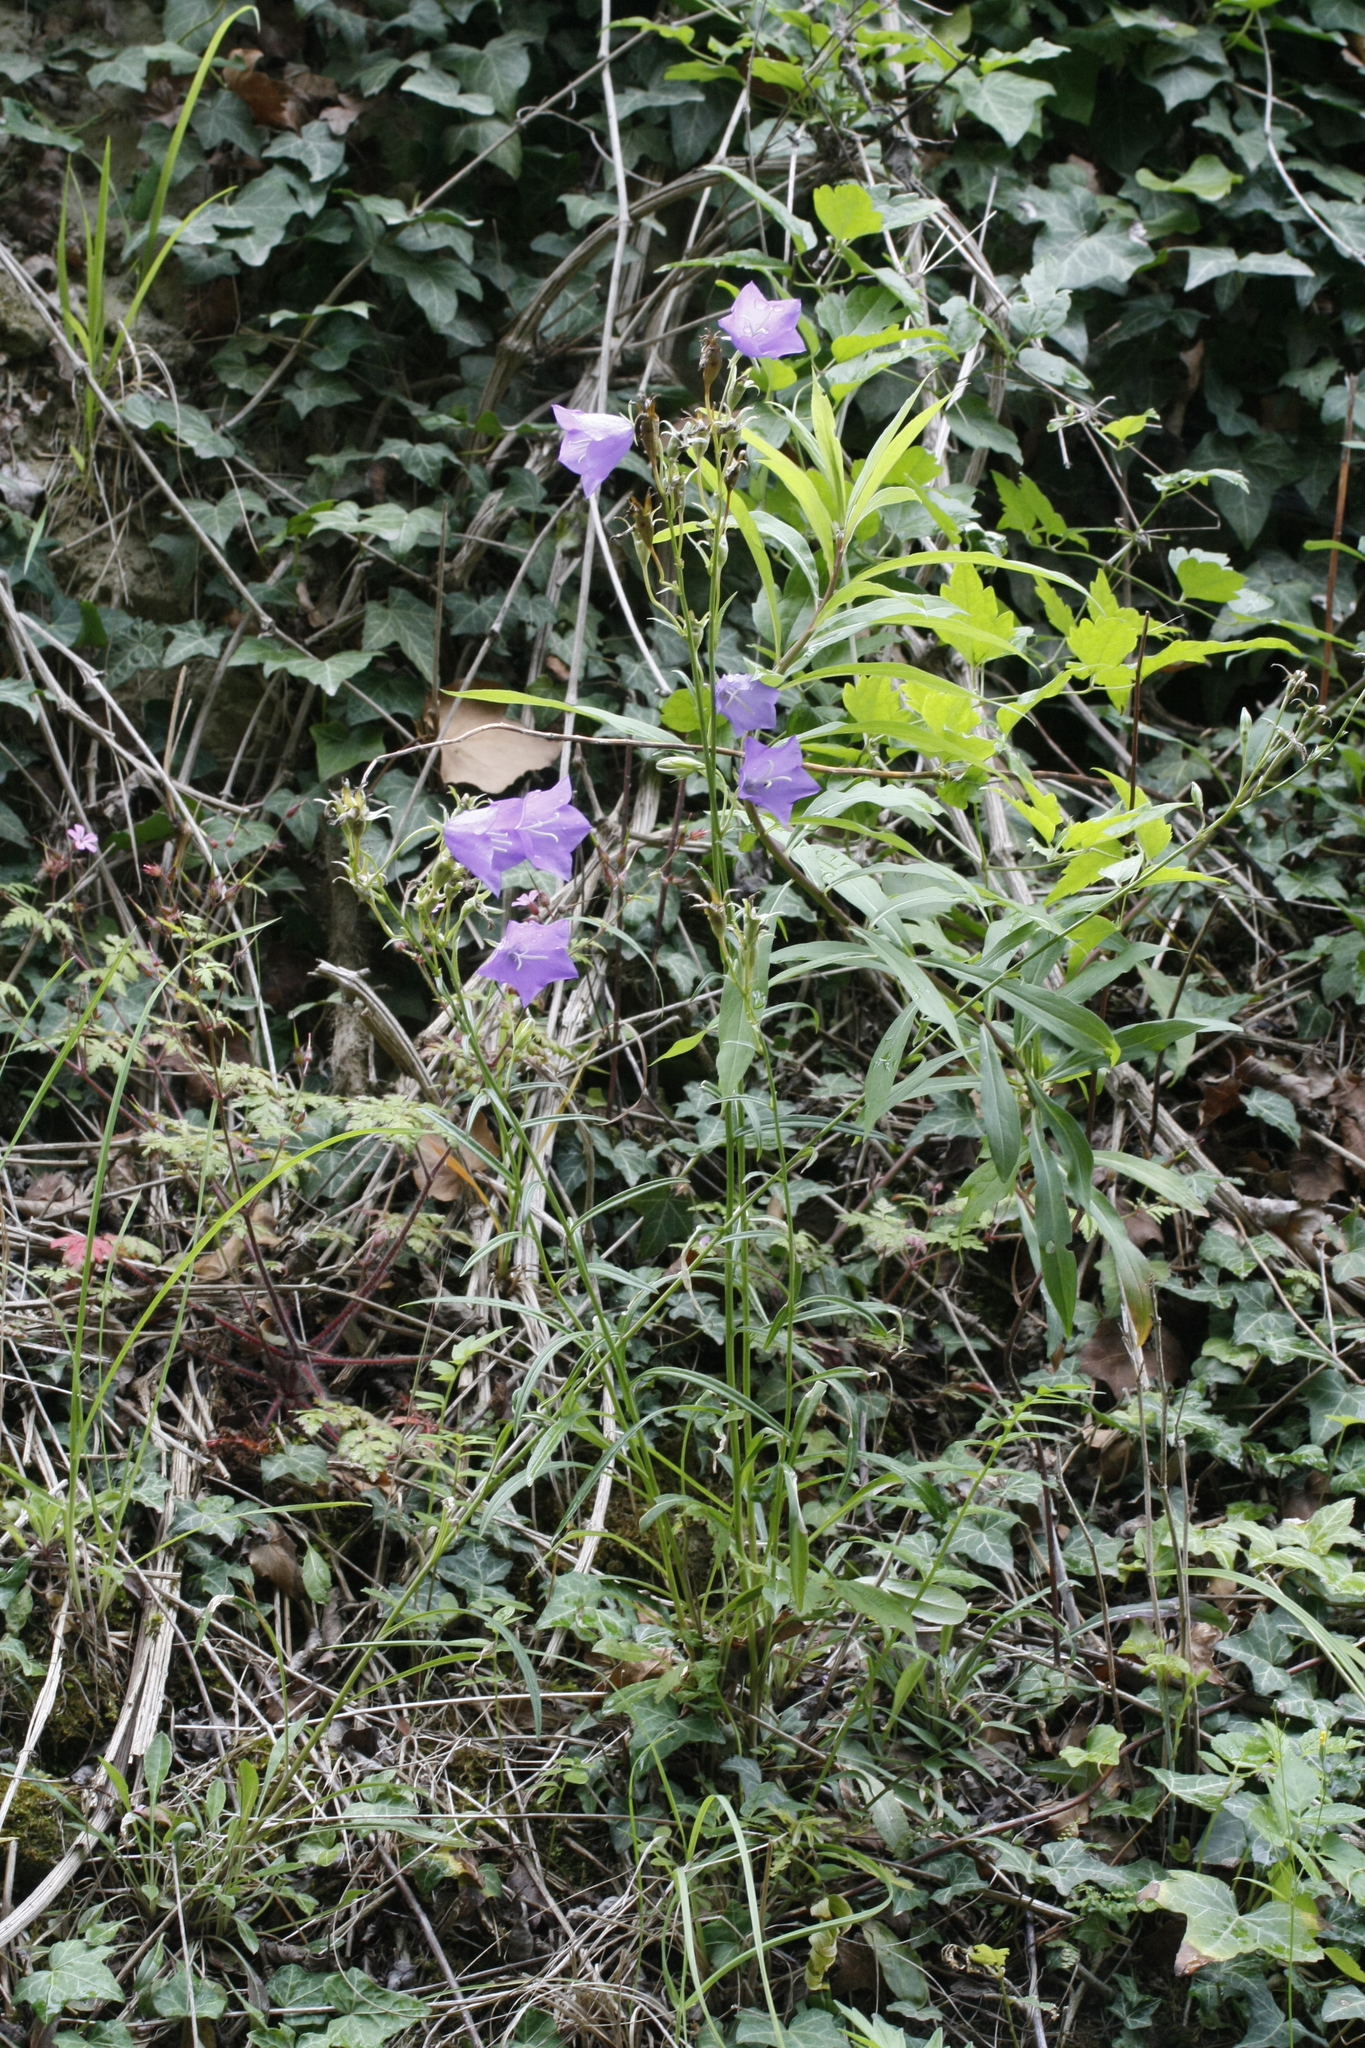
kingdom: Plantae
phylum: Tracheophyta
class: Magnoliopsida
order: Asterales
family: Campanulaceae
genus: Campanula
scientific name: Campanula persicifolia
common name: Peach-leaved bellflower
